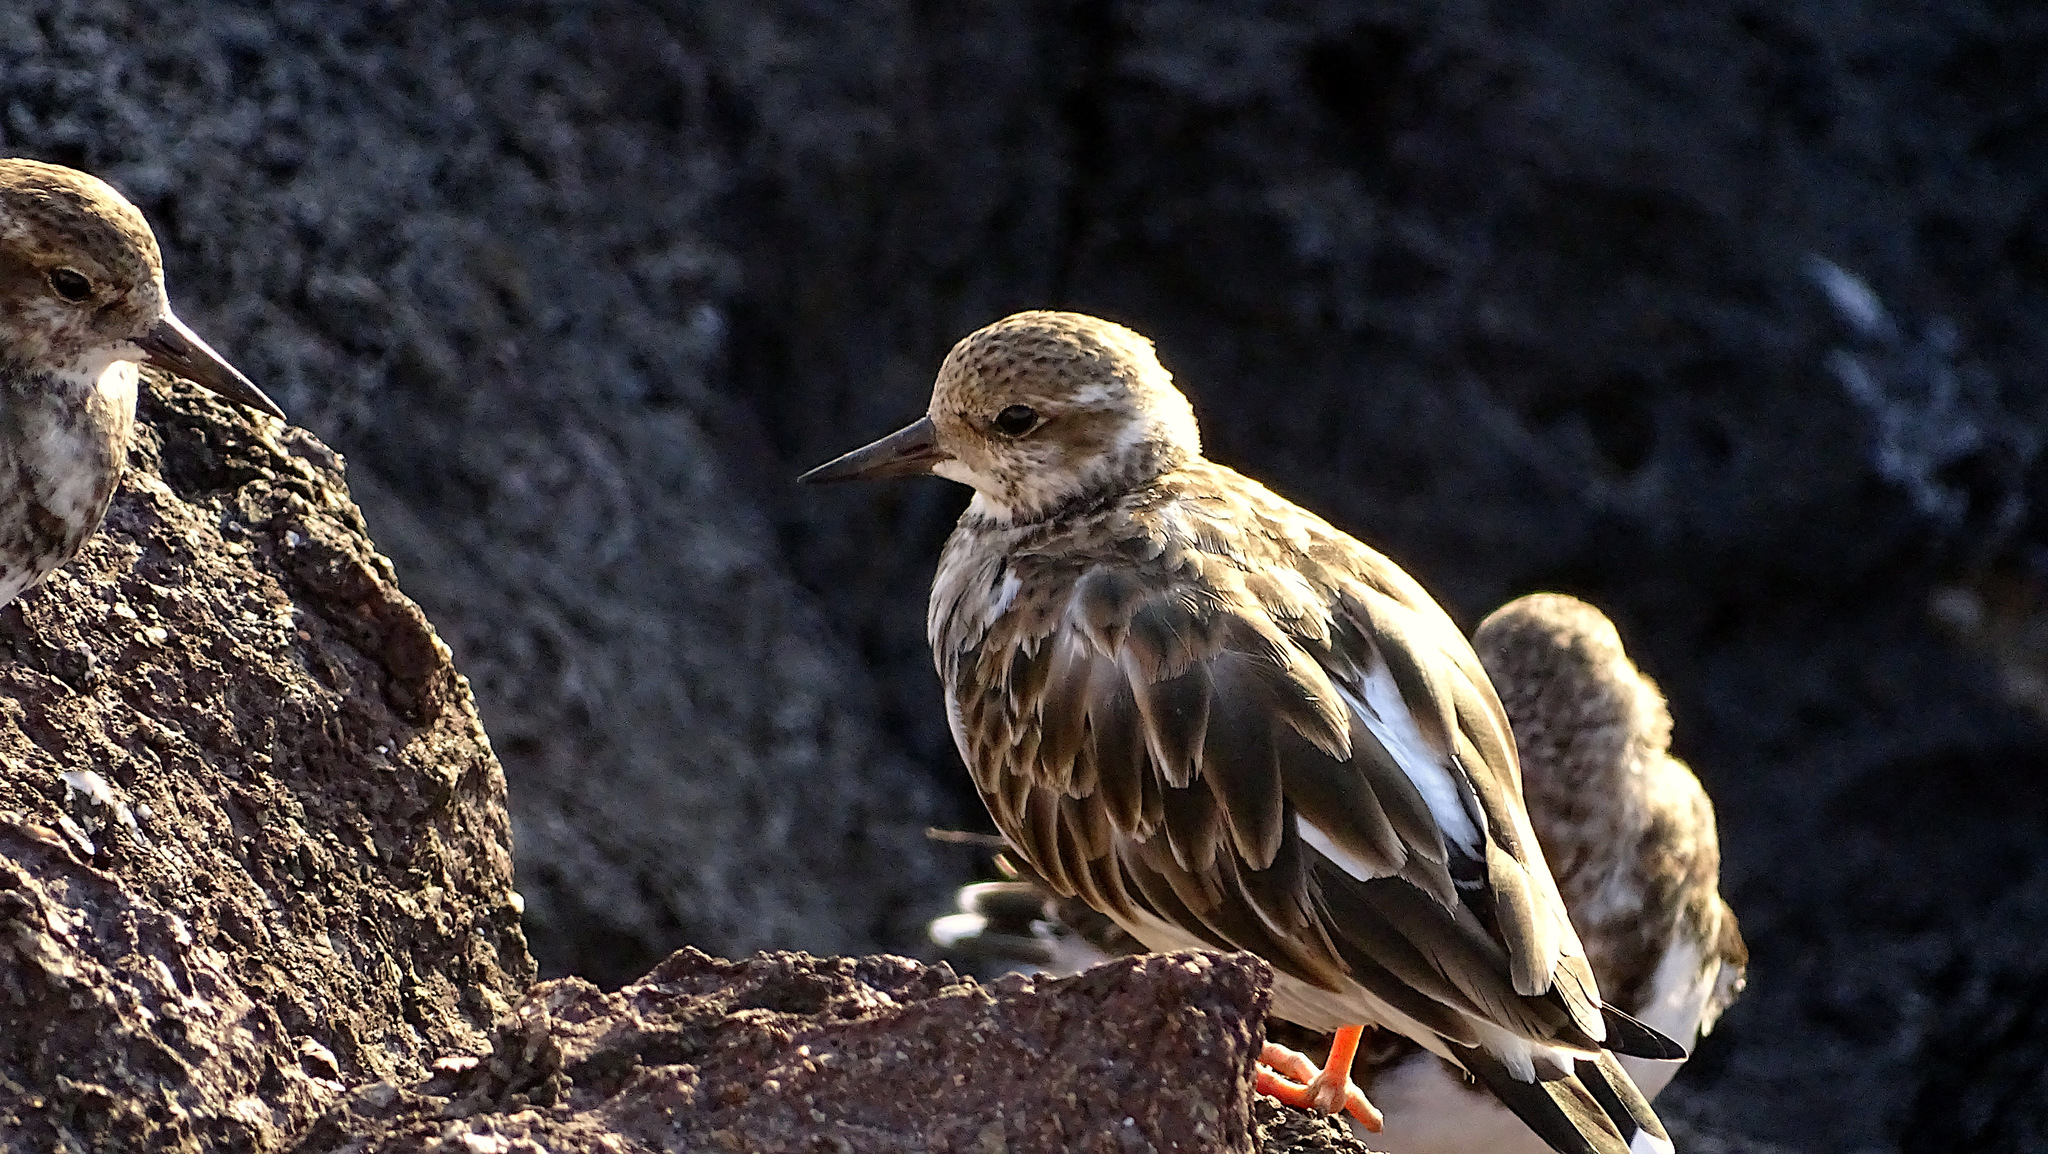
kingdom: Animalia
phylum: Chordata
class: Aves
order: Charadriiformes
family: Scolopacidae
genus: Arenaria
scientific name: Arenaria interpres
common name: Ruddy turnstone
